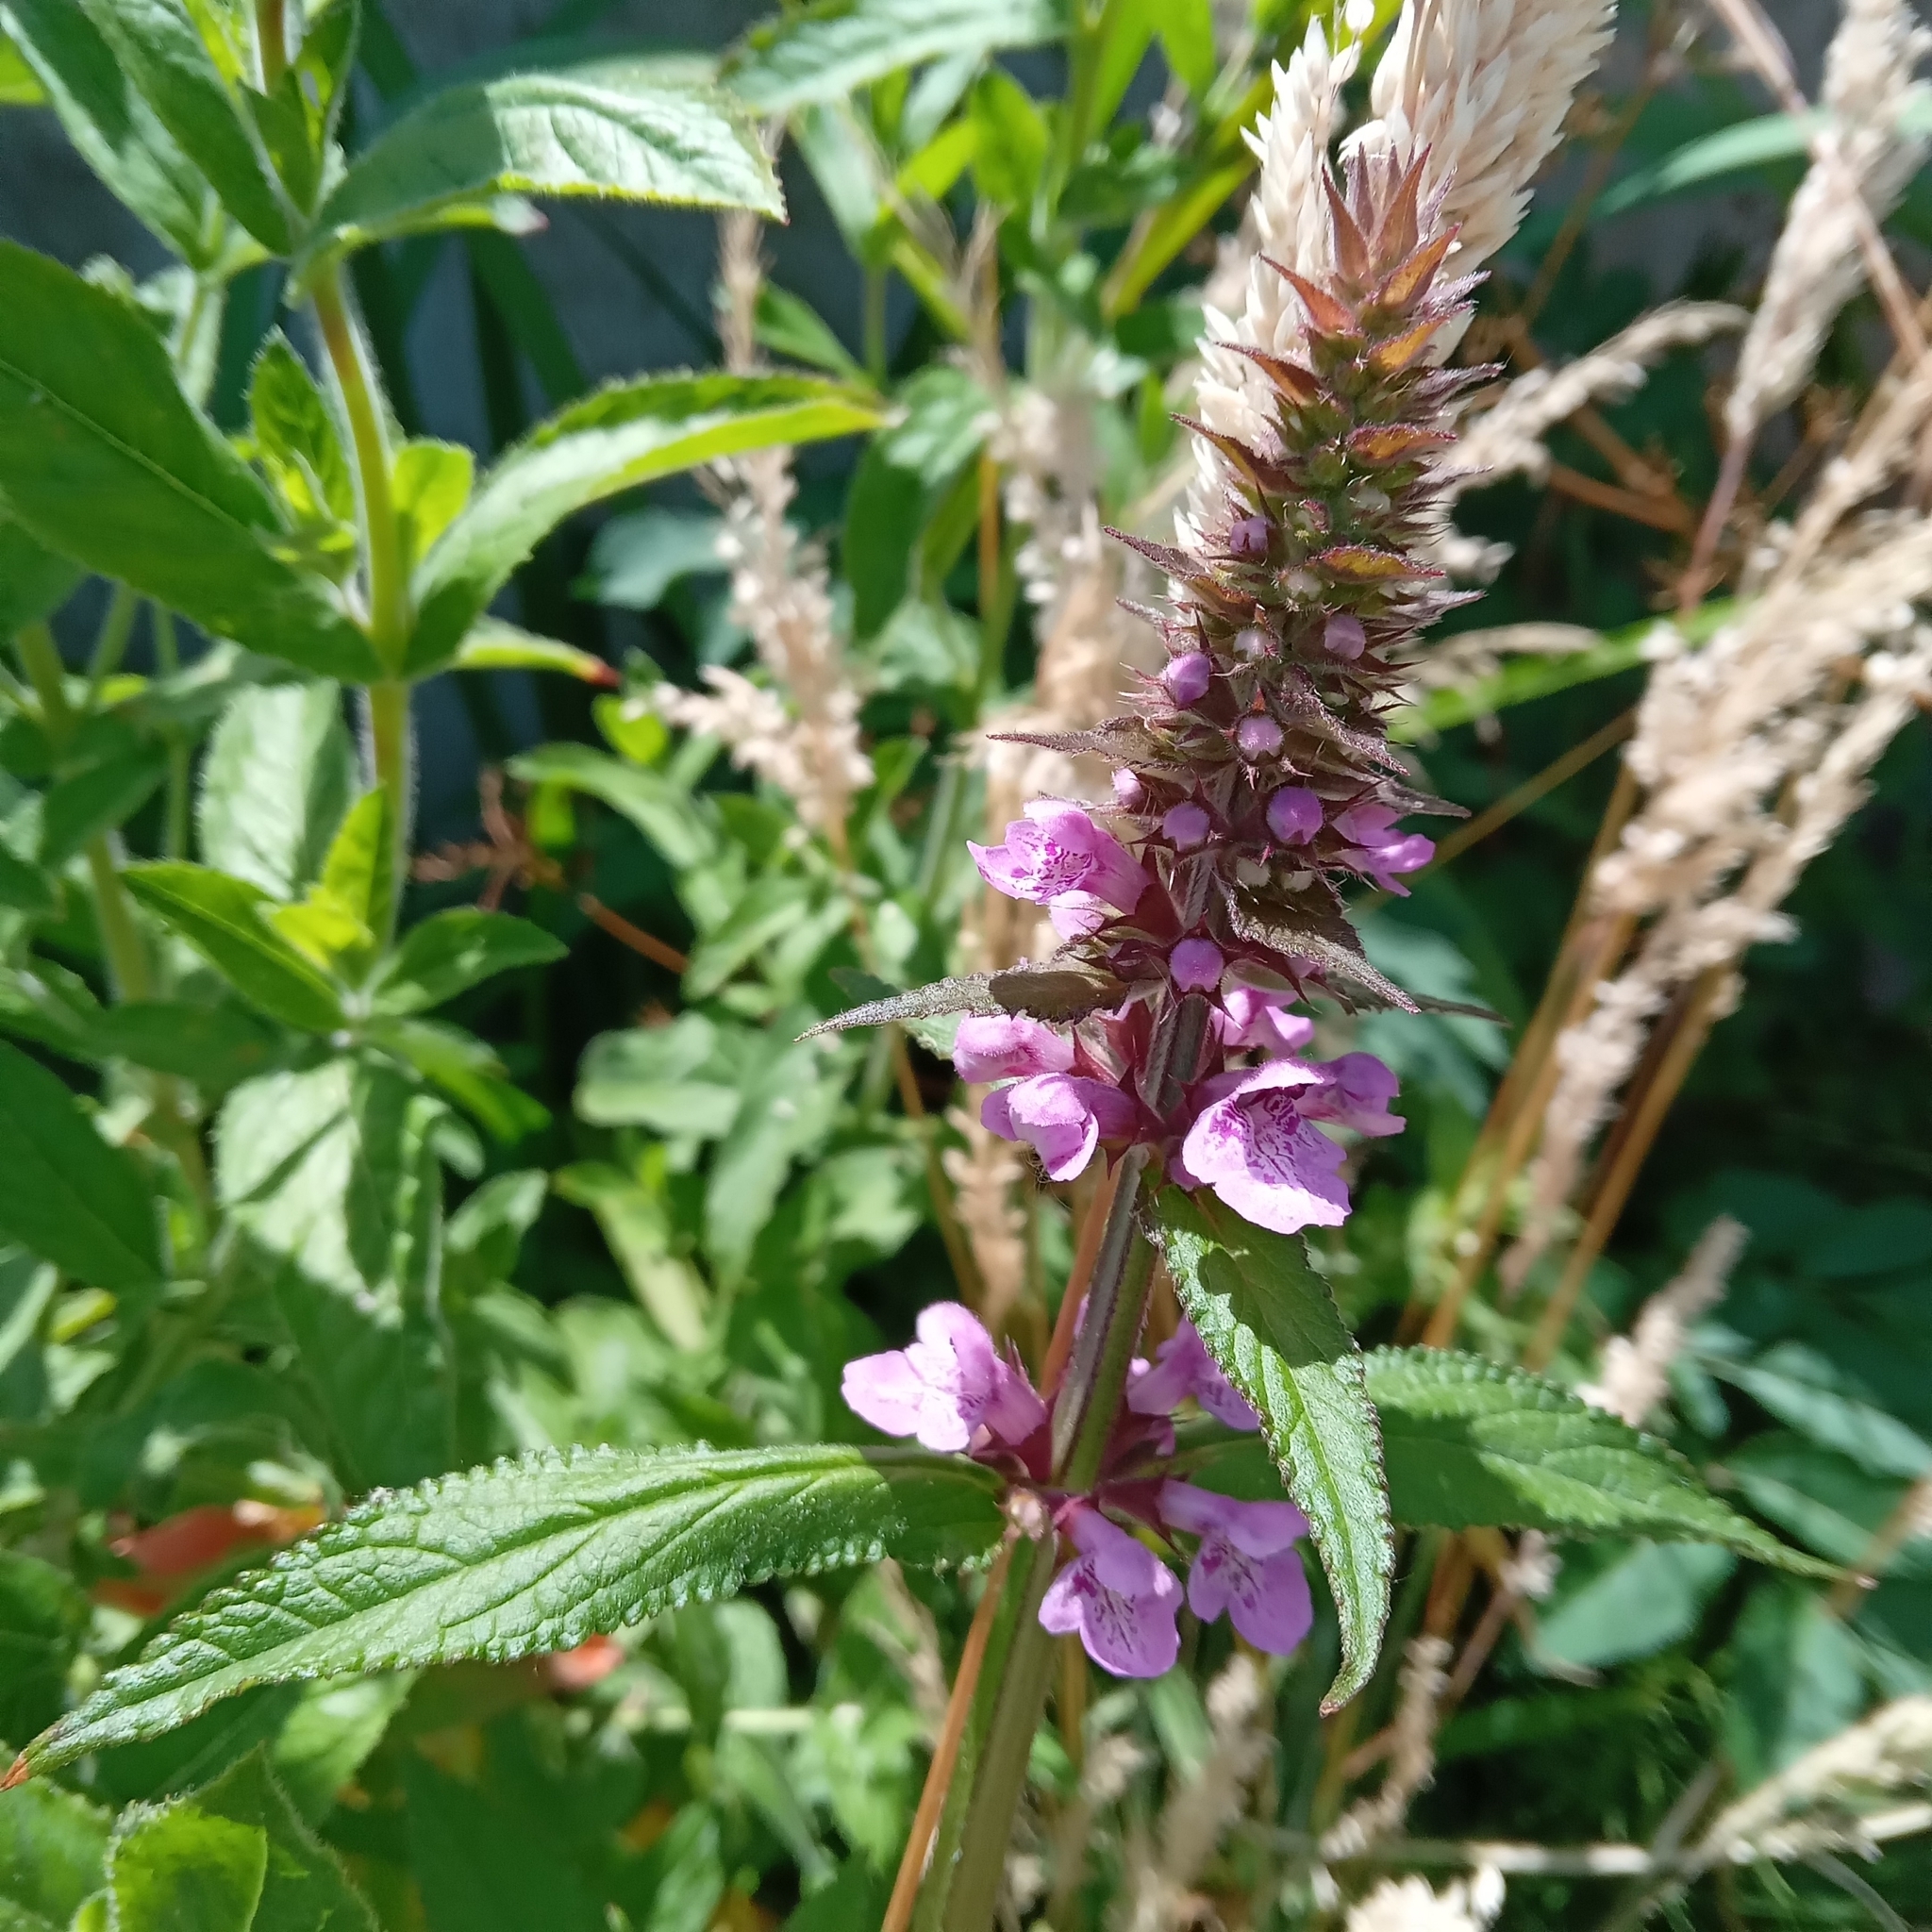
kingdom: Plantae
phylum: Tracheophyta
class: Magnoliopsida
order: Lamiales
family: Lamiaceae
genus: Stachys
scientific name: Stachys palustris
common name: Marsh woundwort
